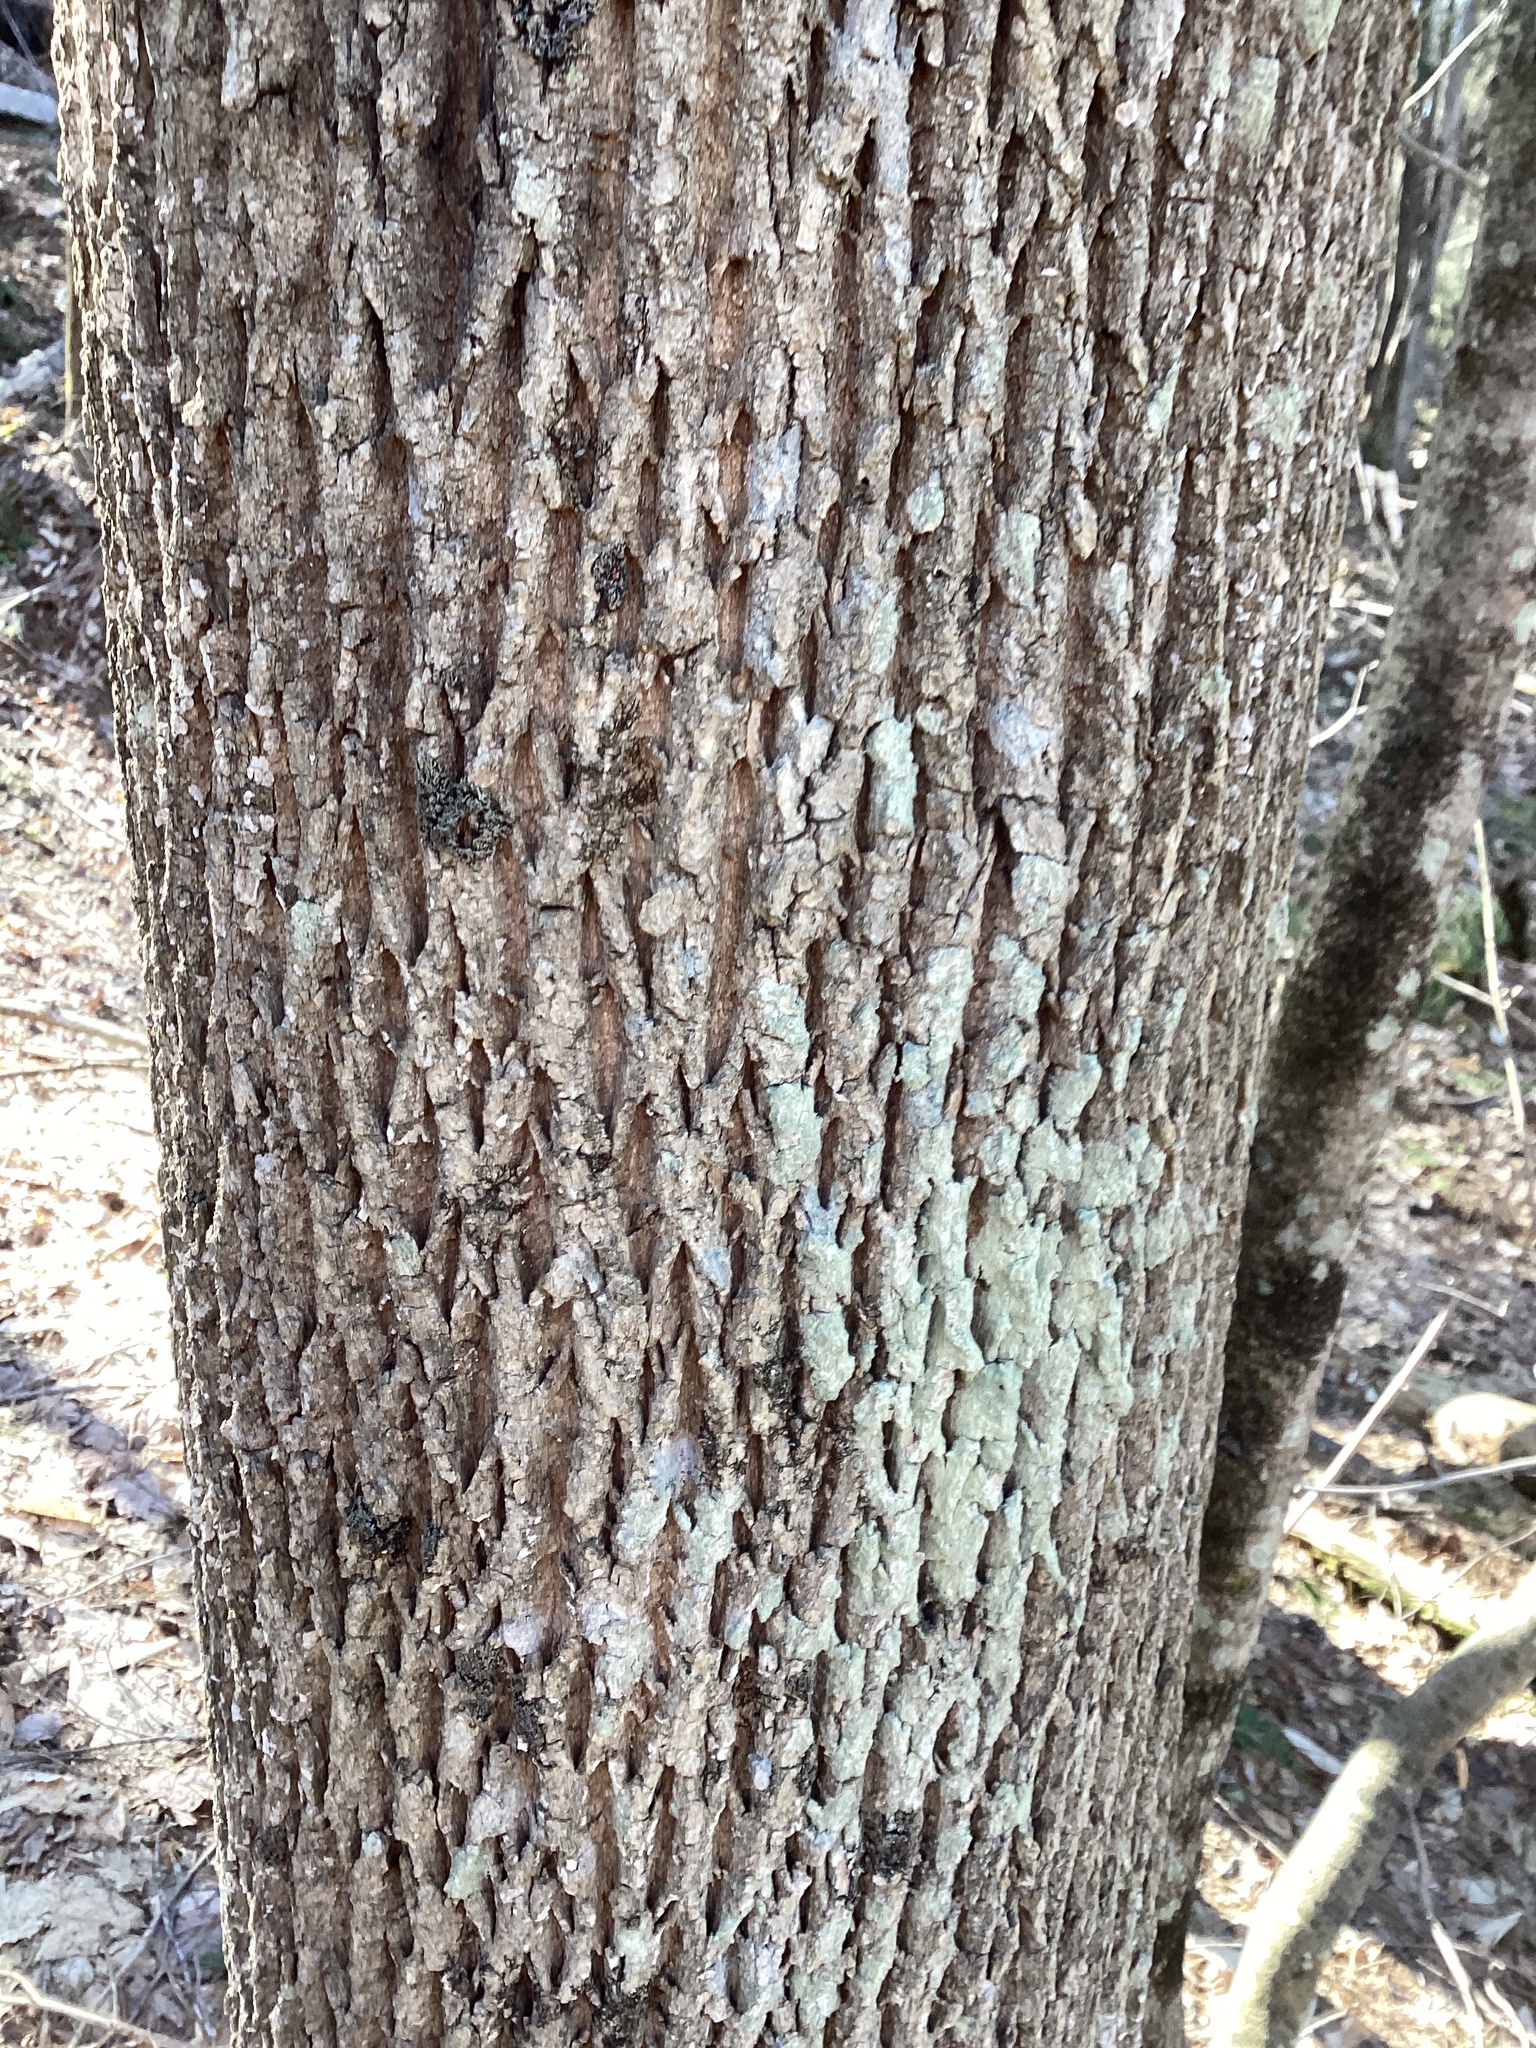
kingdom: Plantae
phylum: Tracheophyta
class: Magnoliopsida
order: Lamiales
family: Oleaceae
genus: Fraxinus
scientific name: Fraxinus americana
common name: White ash
